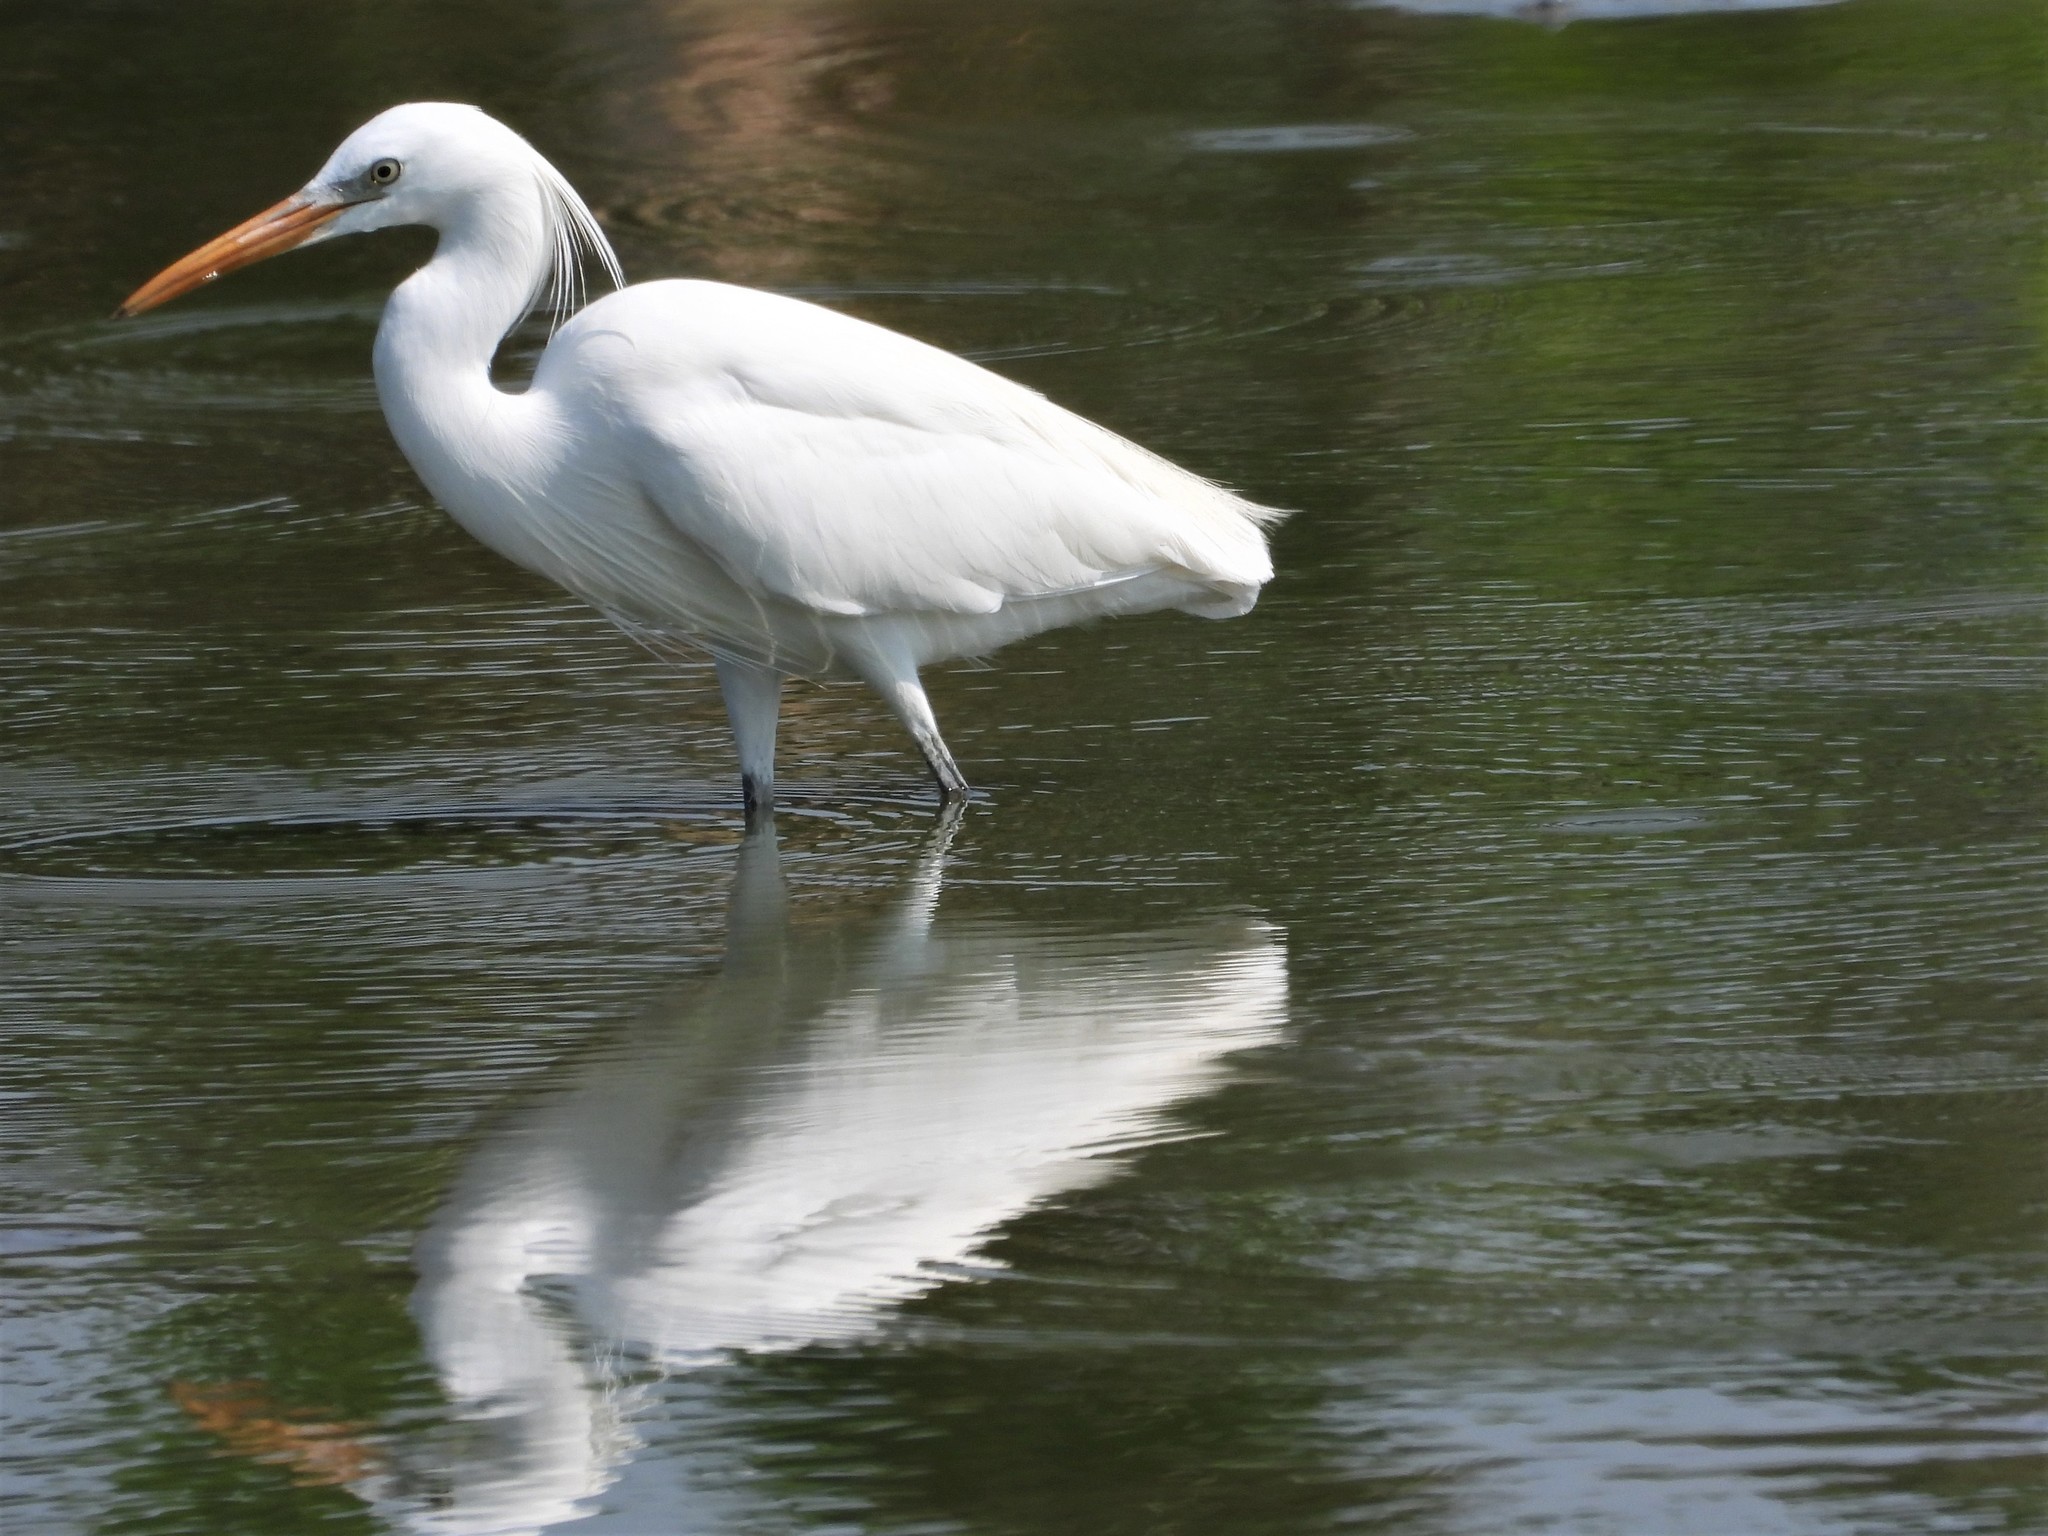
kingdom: Animalia
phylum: Chordata
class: Aves
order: Pelecaniformes
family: Ardeidae
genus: Egretta
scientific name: Egretta eulophotes
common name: Chinese egret
